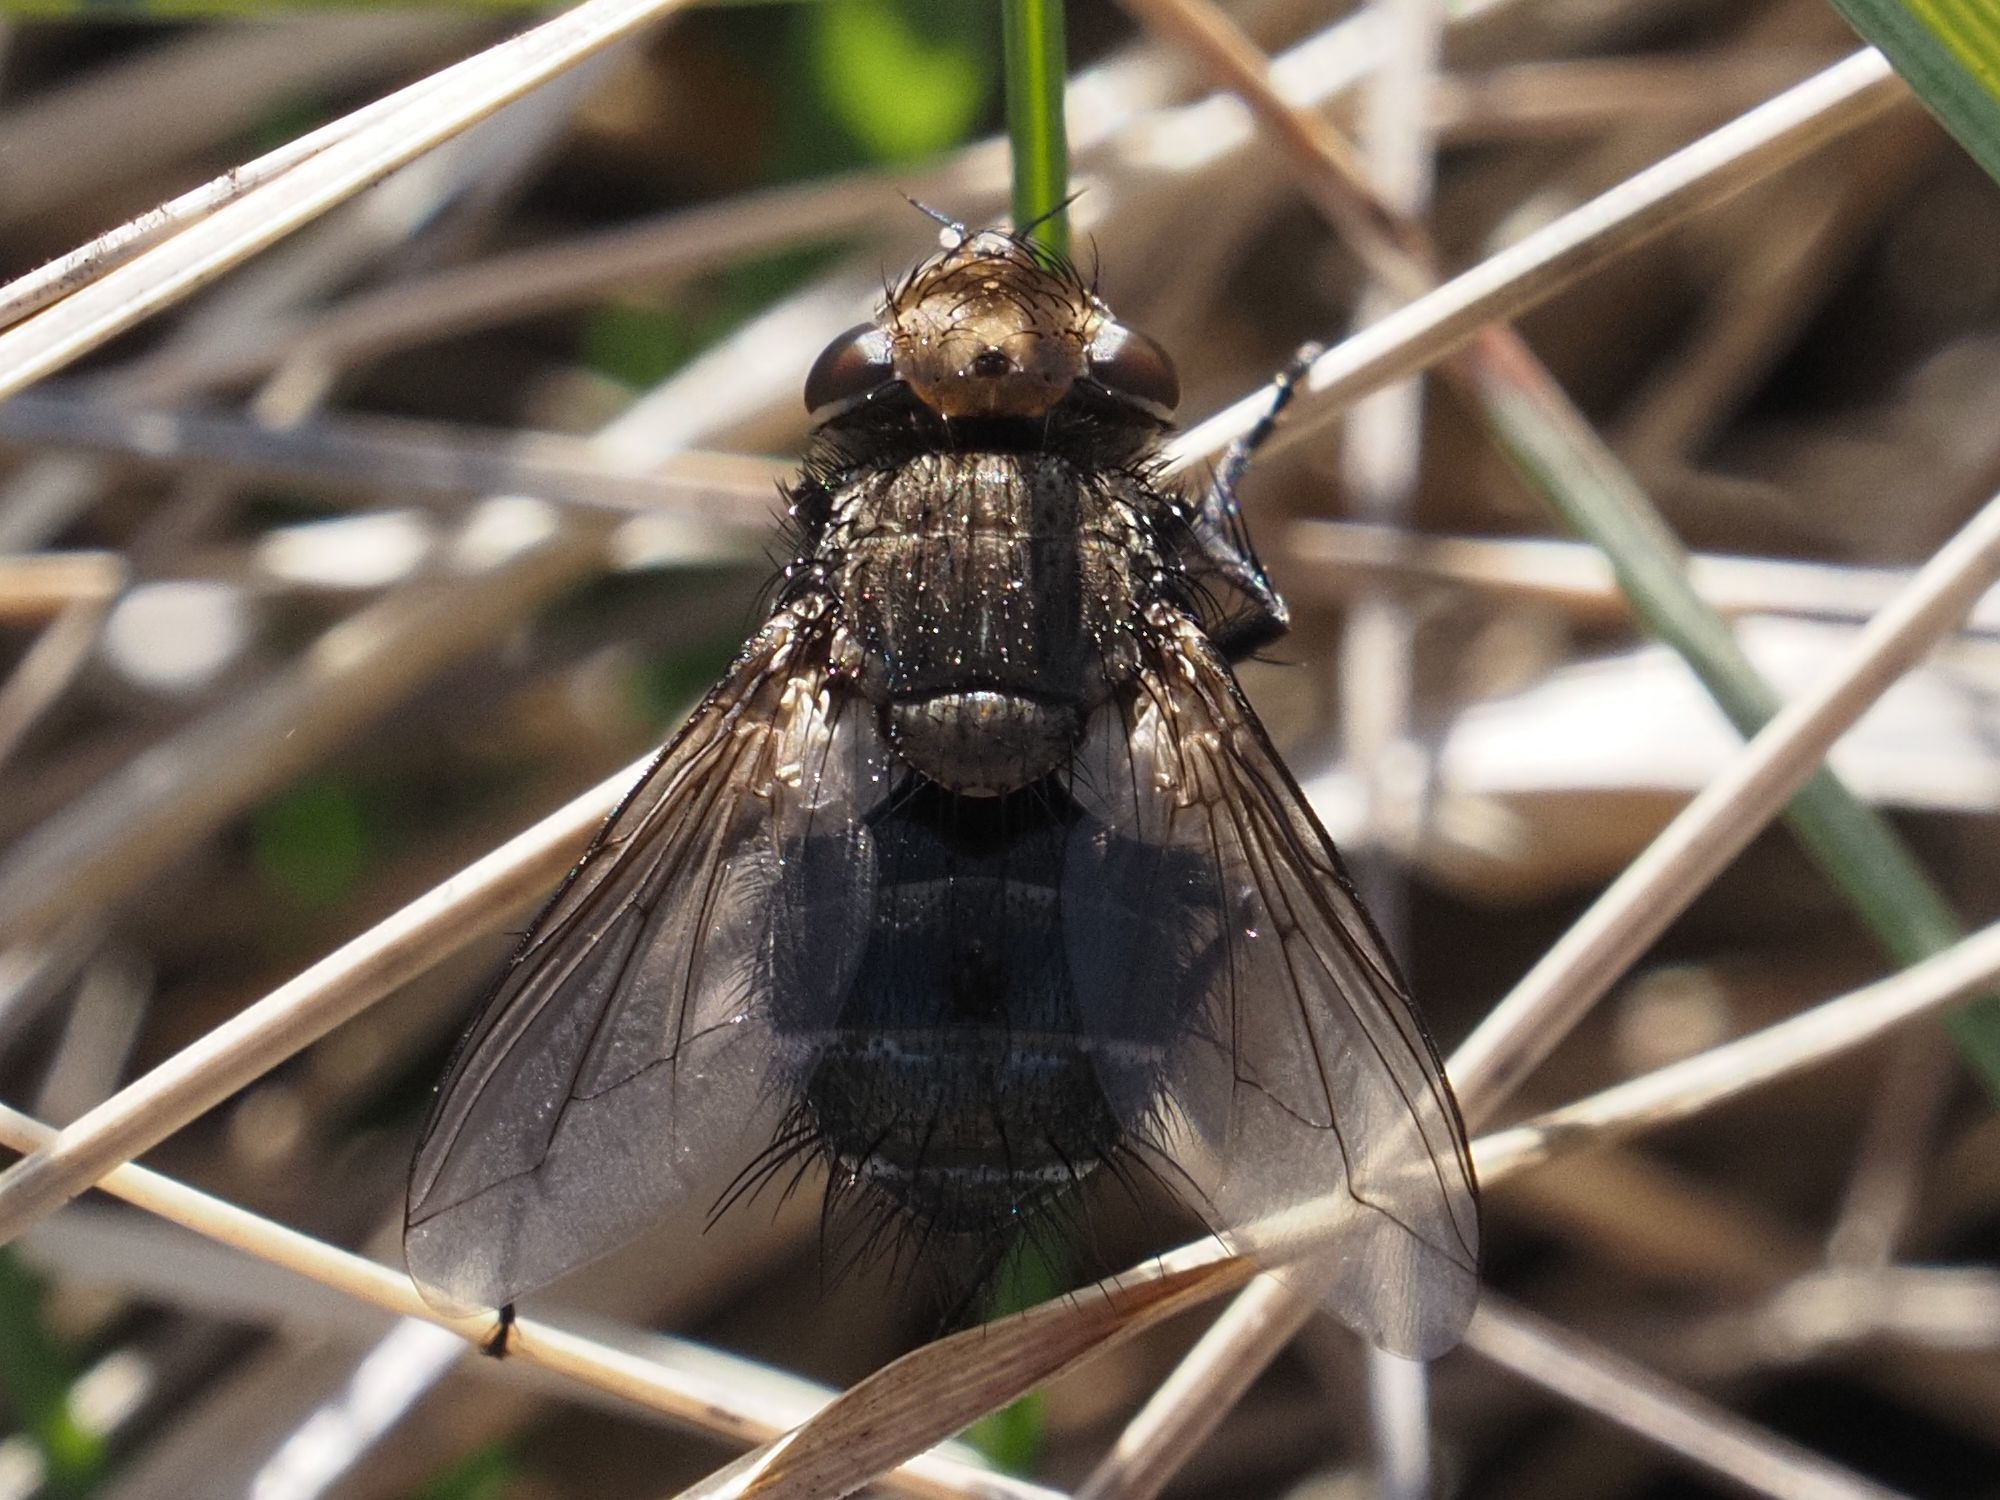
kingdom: Animalia
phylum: Arthropoda
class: Insecta
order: Diptera
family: Tachinidae
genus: Gonia
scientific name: Gonia picea
